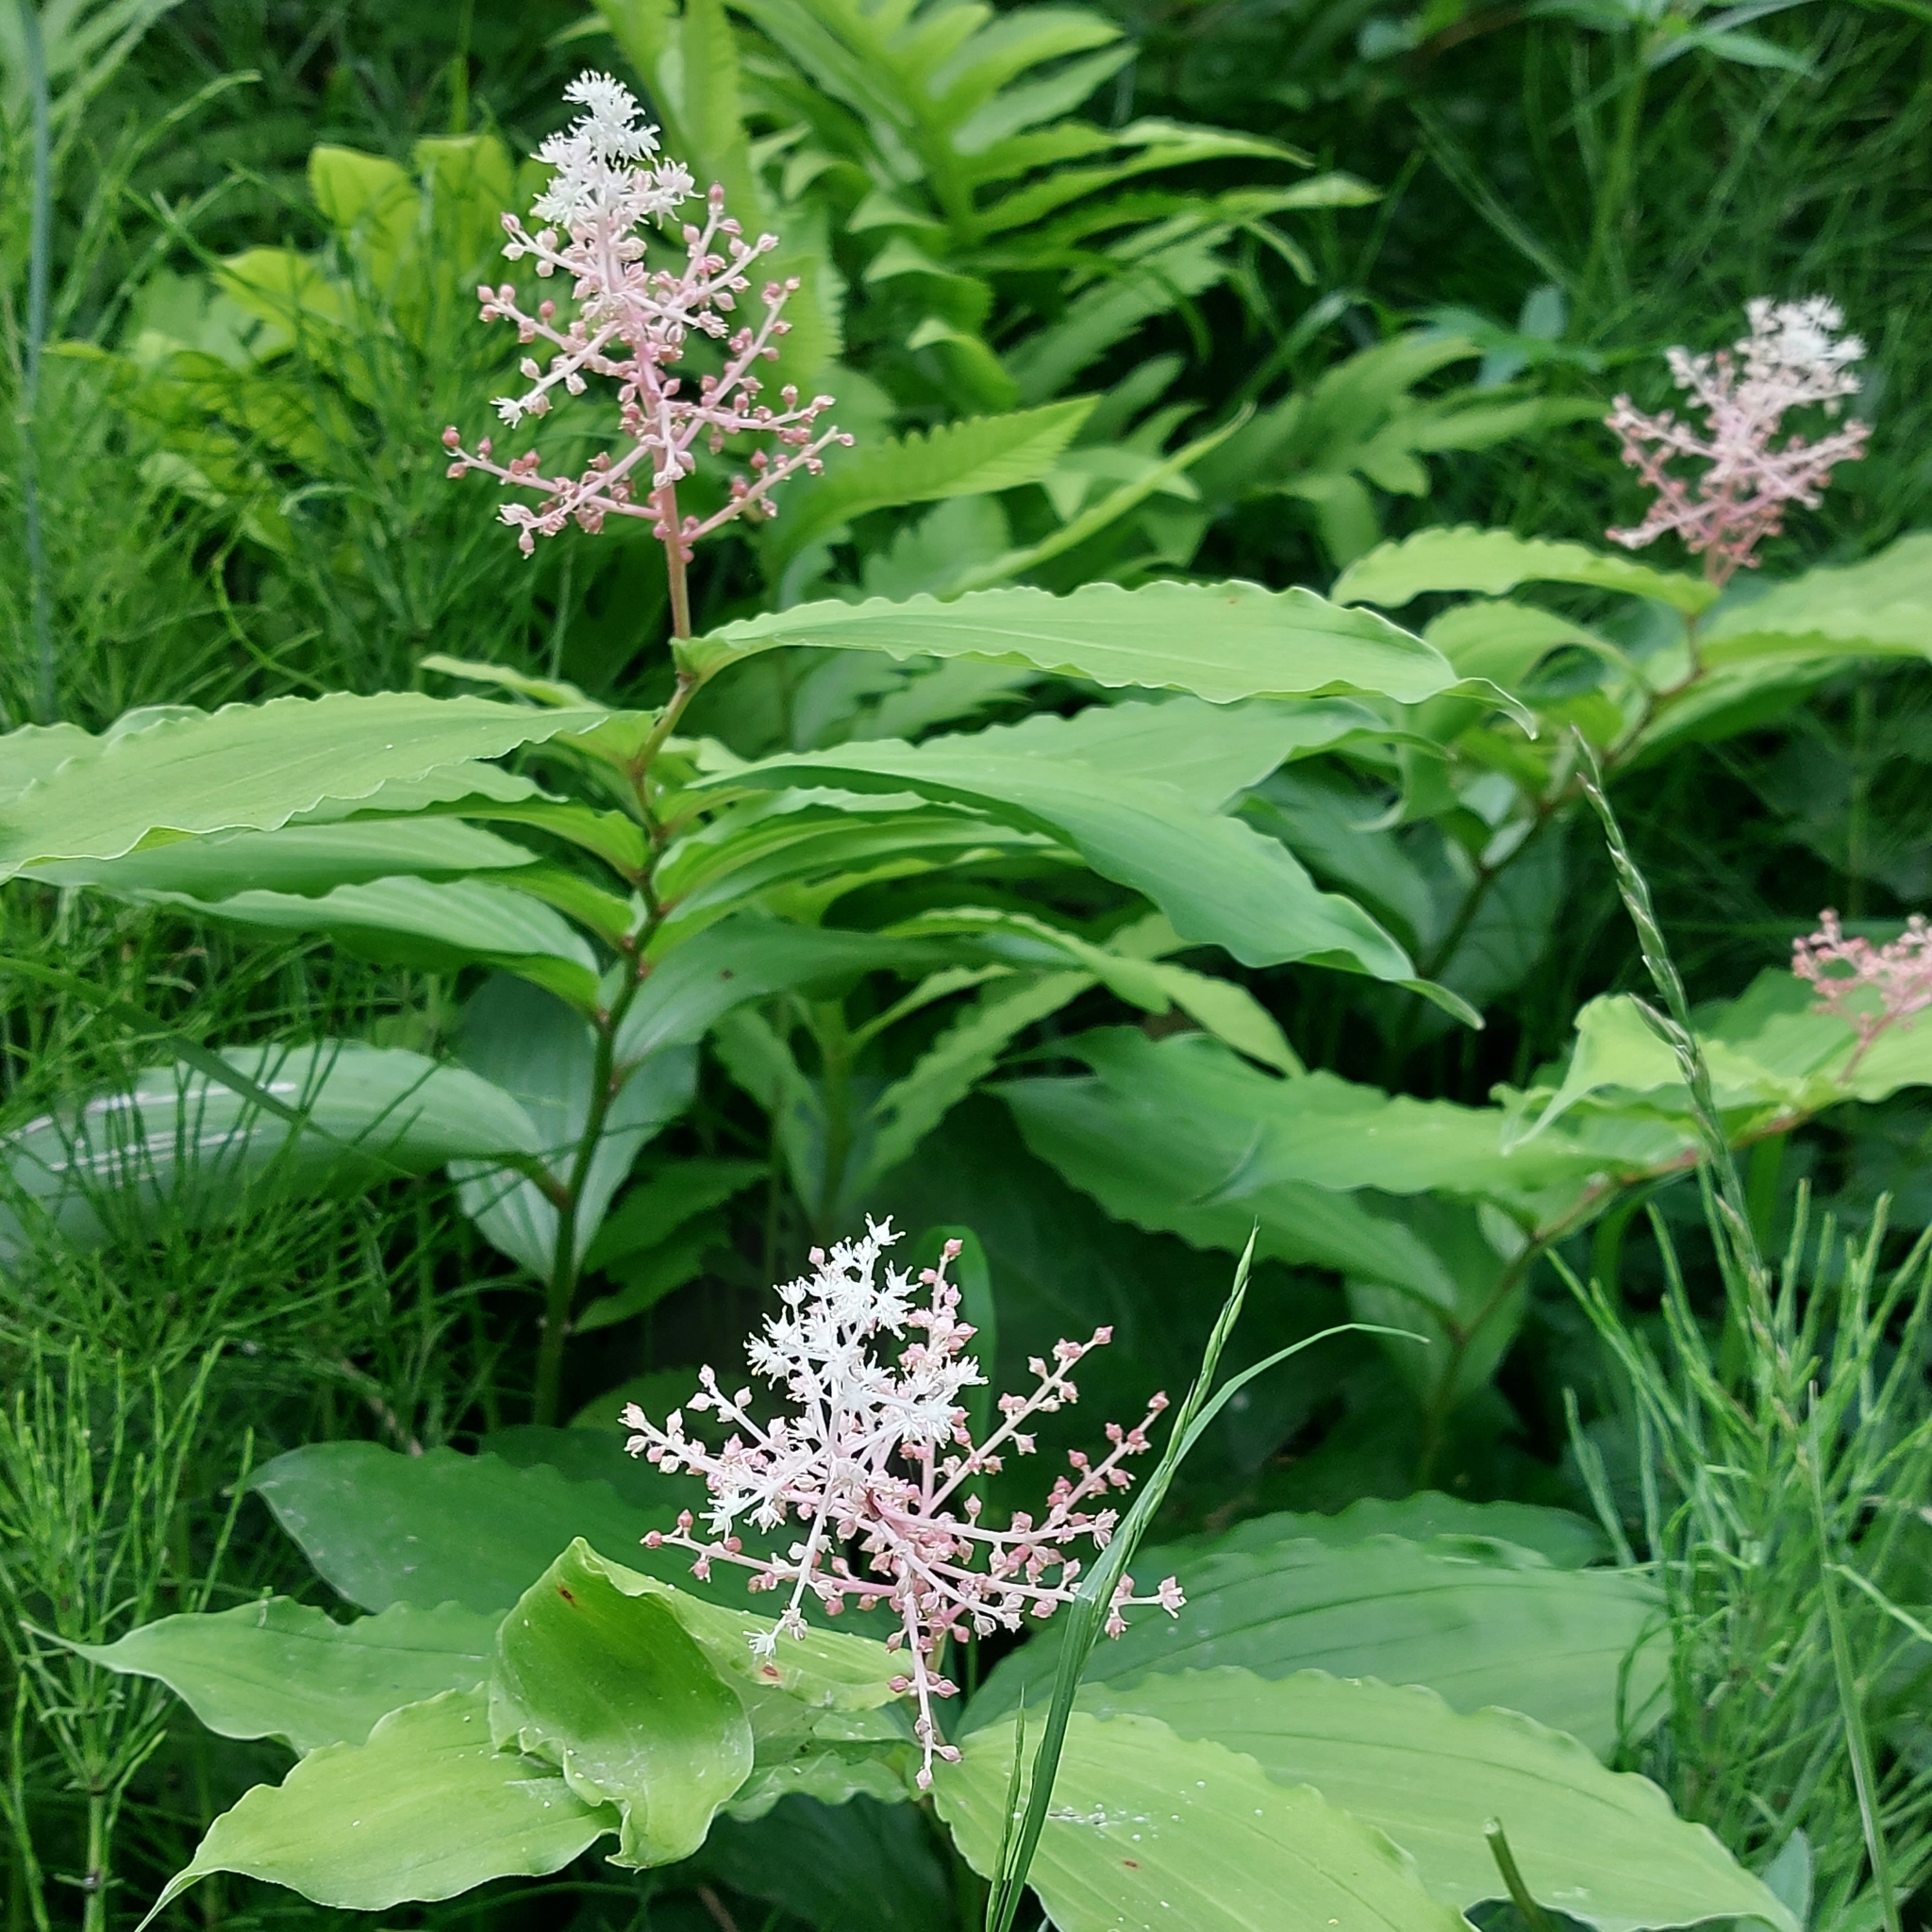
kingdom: Plantae
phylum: Tracheophyta
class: Liliopsida
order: Asparagales
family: Asparagaceae
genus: Maianthemum
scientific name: Maianthemum racemosum
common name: False spikenard
